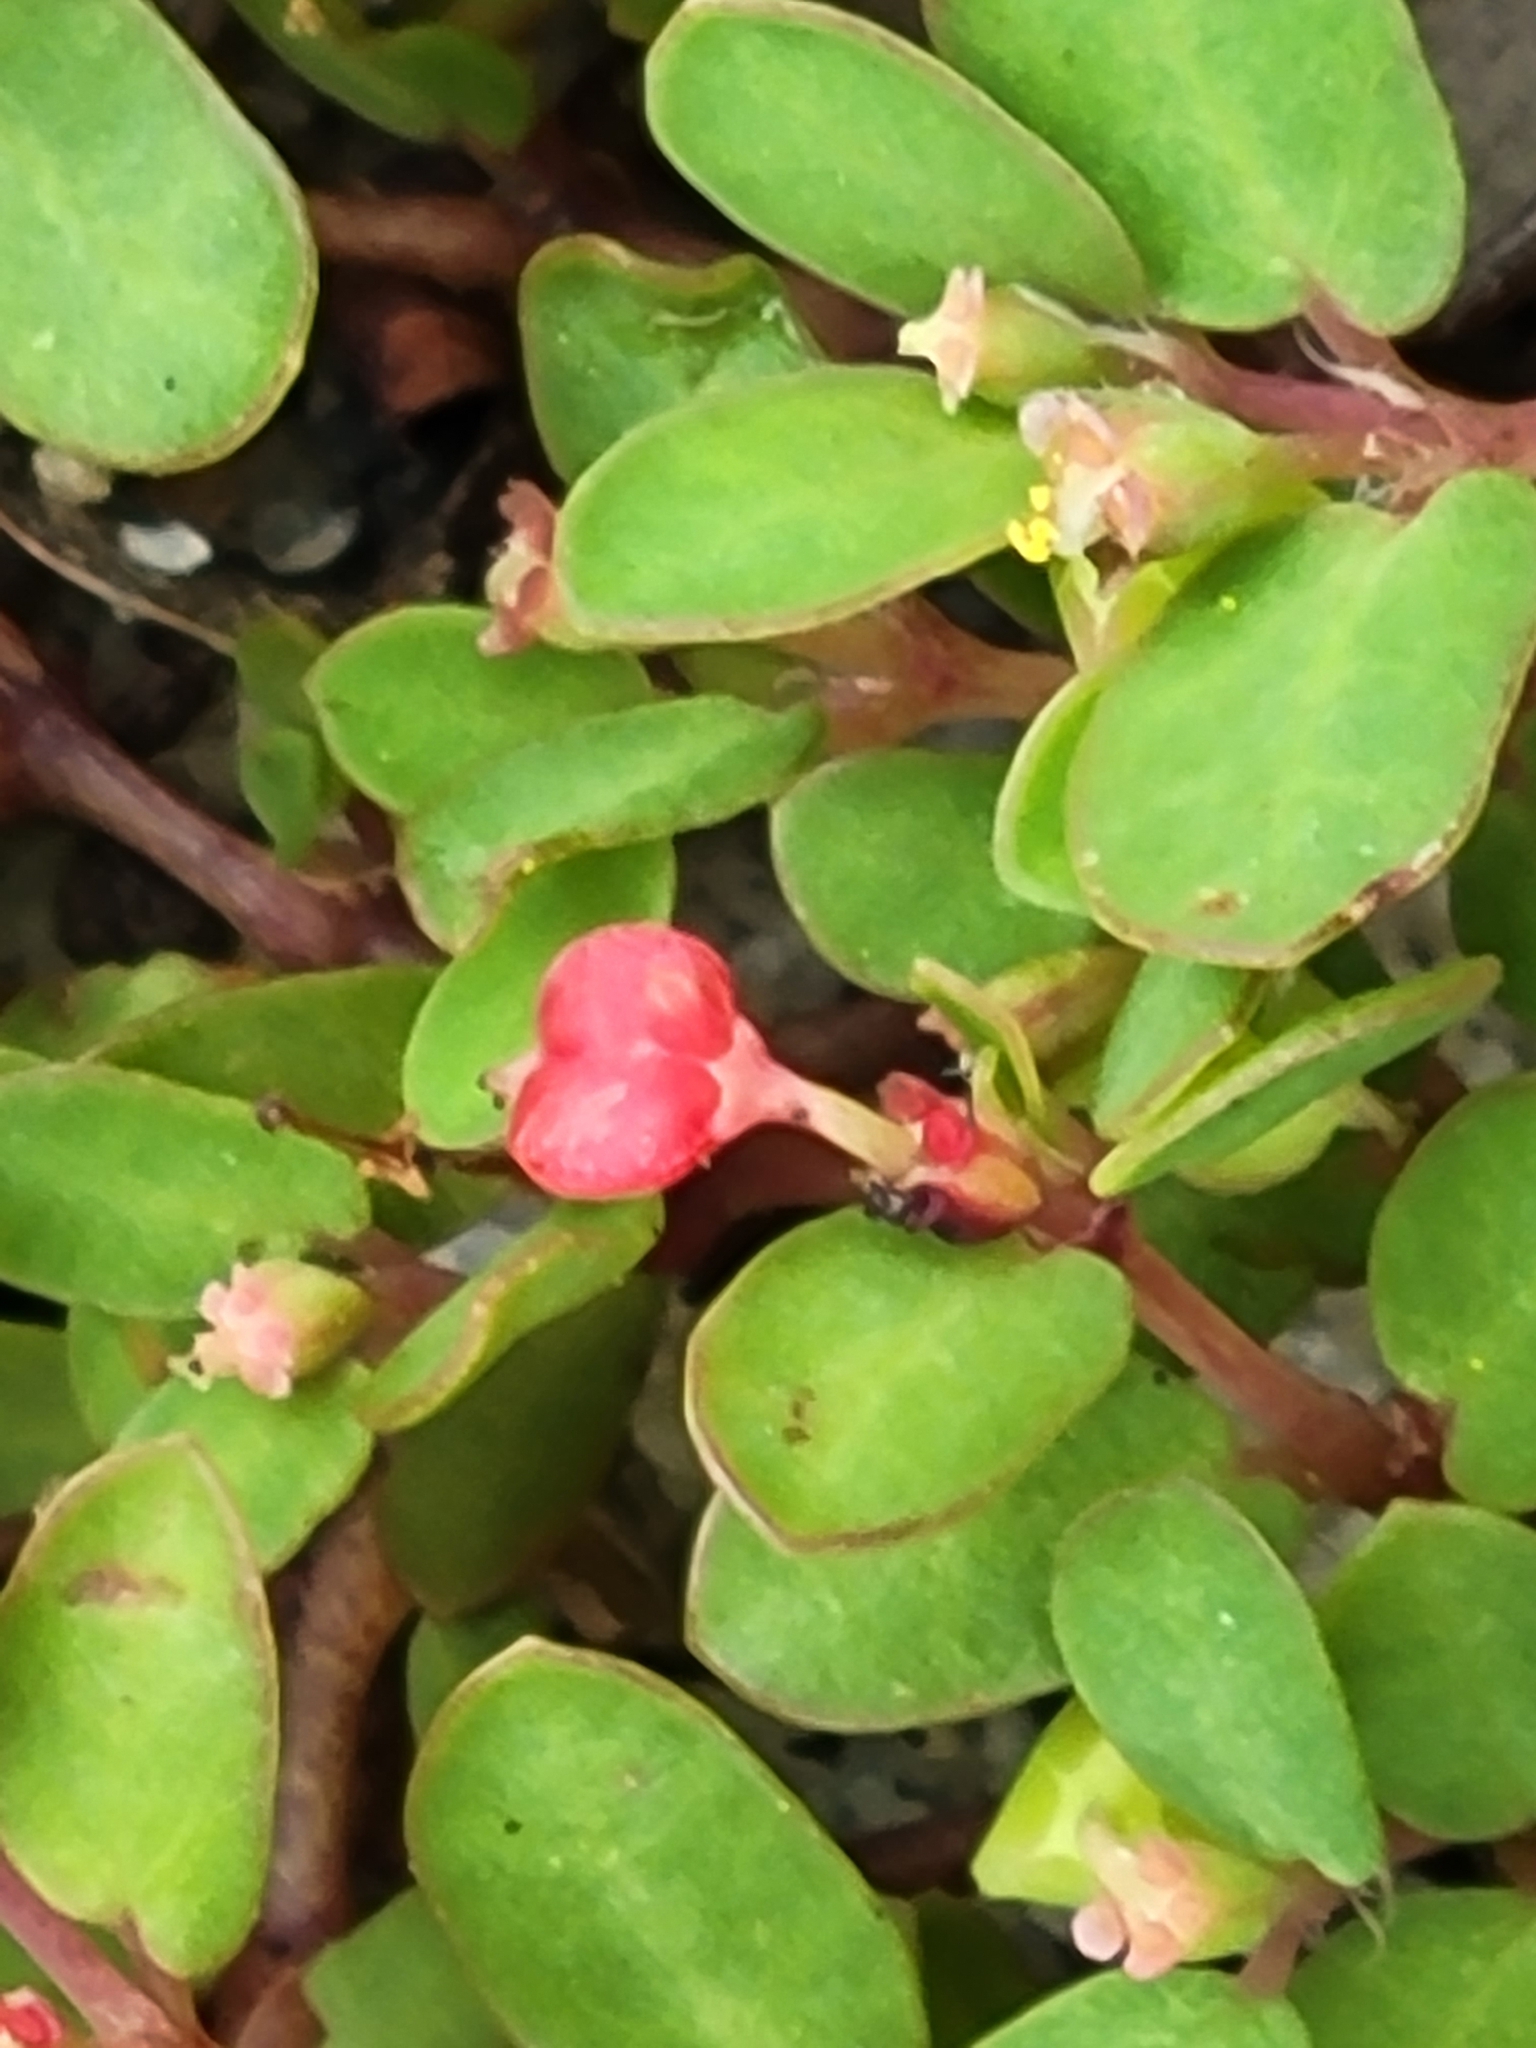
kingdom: Plantae
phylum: Tracheophyta
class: Magnoliopsida
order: Malpighiales
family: Euphorbiaceae
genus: Euphorbia
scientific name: Euphorbia cordifolia
